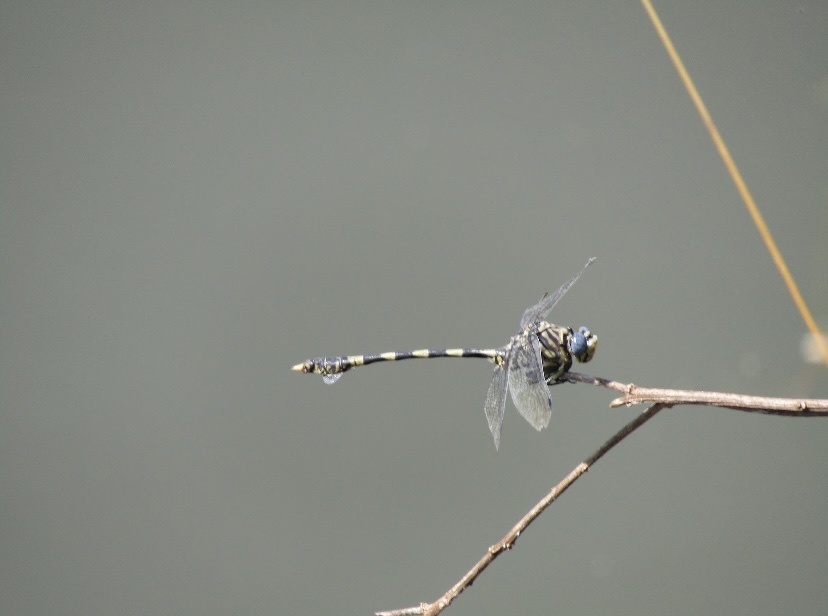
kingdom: Animalia
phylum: Arthropoda
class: Insecta
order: Odonata
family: Gomphidae
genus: Ictinogomphus
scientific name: Ictinogomphus ferox
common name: Common tiger
